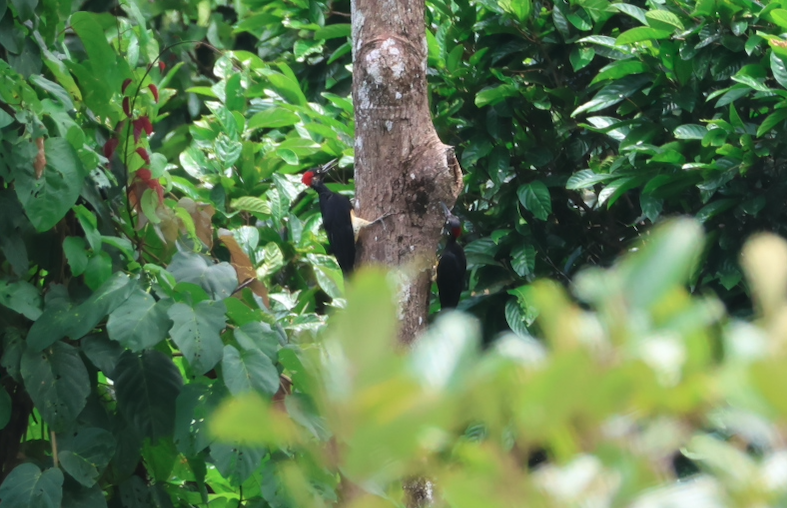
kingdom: Animalia
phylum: Chordata
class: Aves
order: Piciformes
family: Picidae
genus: Dryocopus
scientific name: Dryocopus javensis
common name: White-bellied woodpecker
